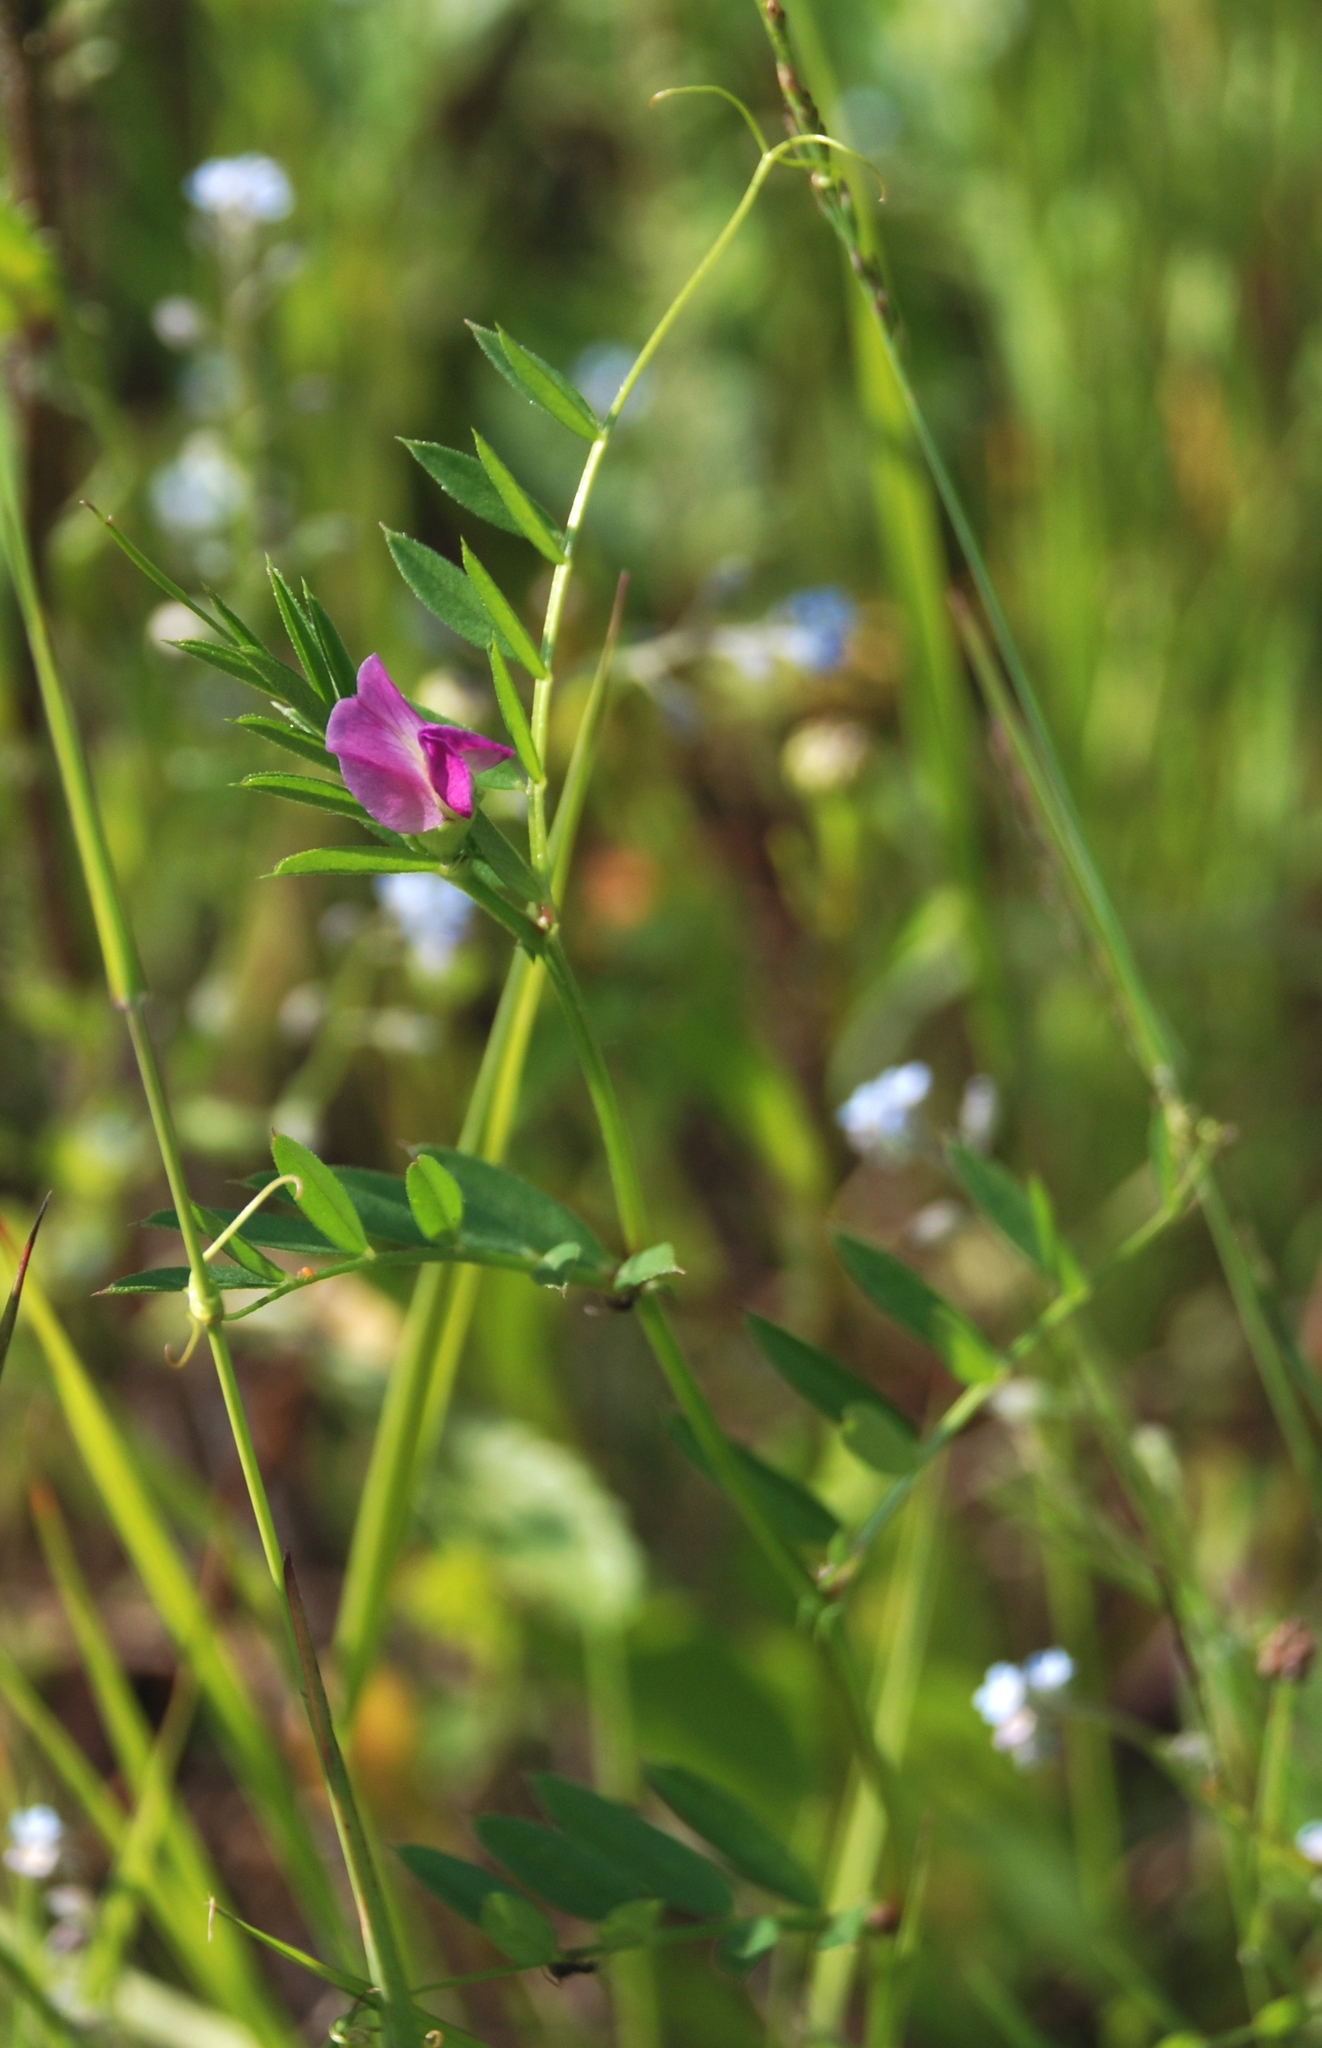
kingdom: Plantae
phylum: Tracheophyta
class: Magnoliopsida
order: Fabales
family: Fabaceae
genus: Vicia
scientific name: Vicia sativa
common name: Garden vetch
